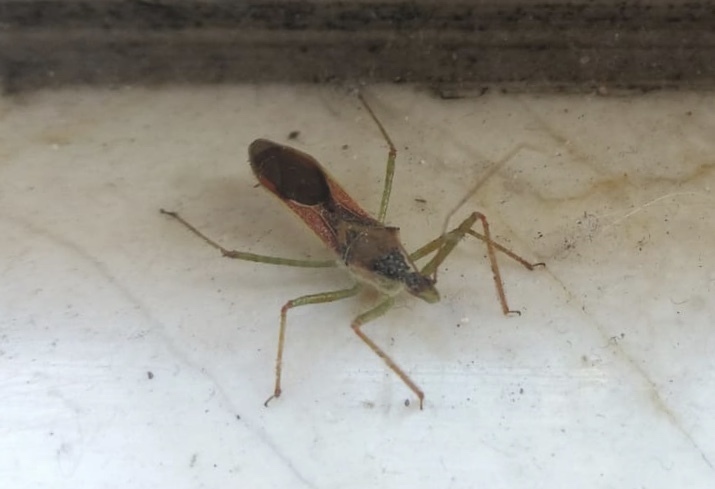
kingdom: Animalia
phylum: Arthropoda
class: Insecta
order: Hemiptera
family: Reduviidae
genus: Zelus
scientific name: Zelus renardii
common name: Assassin bug
